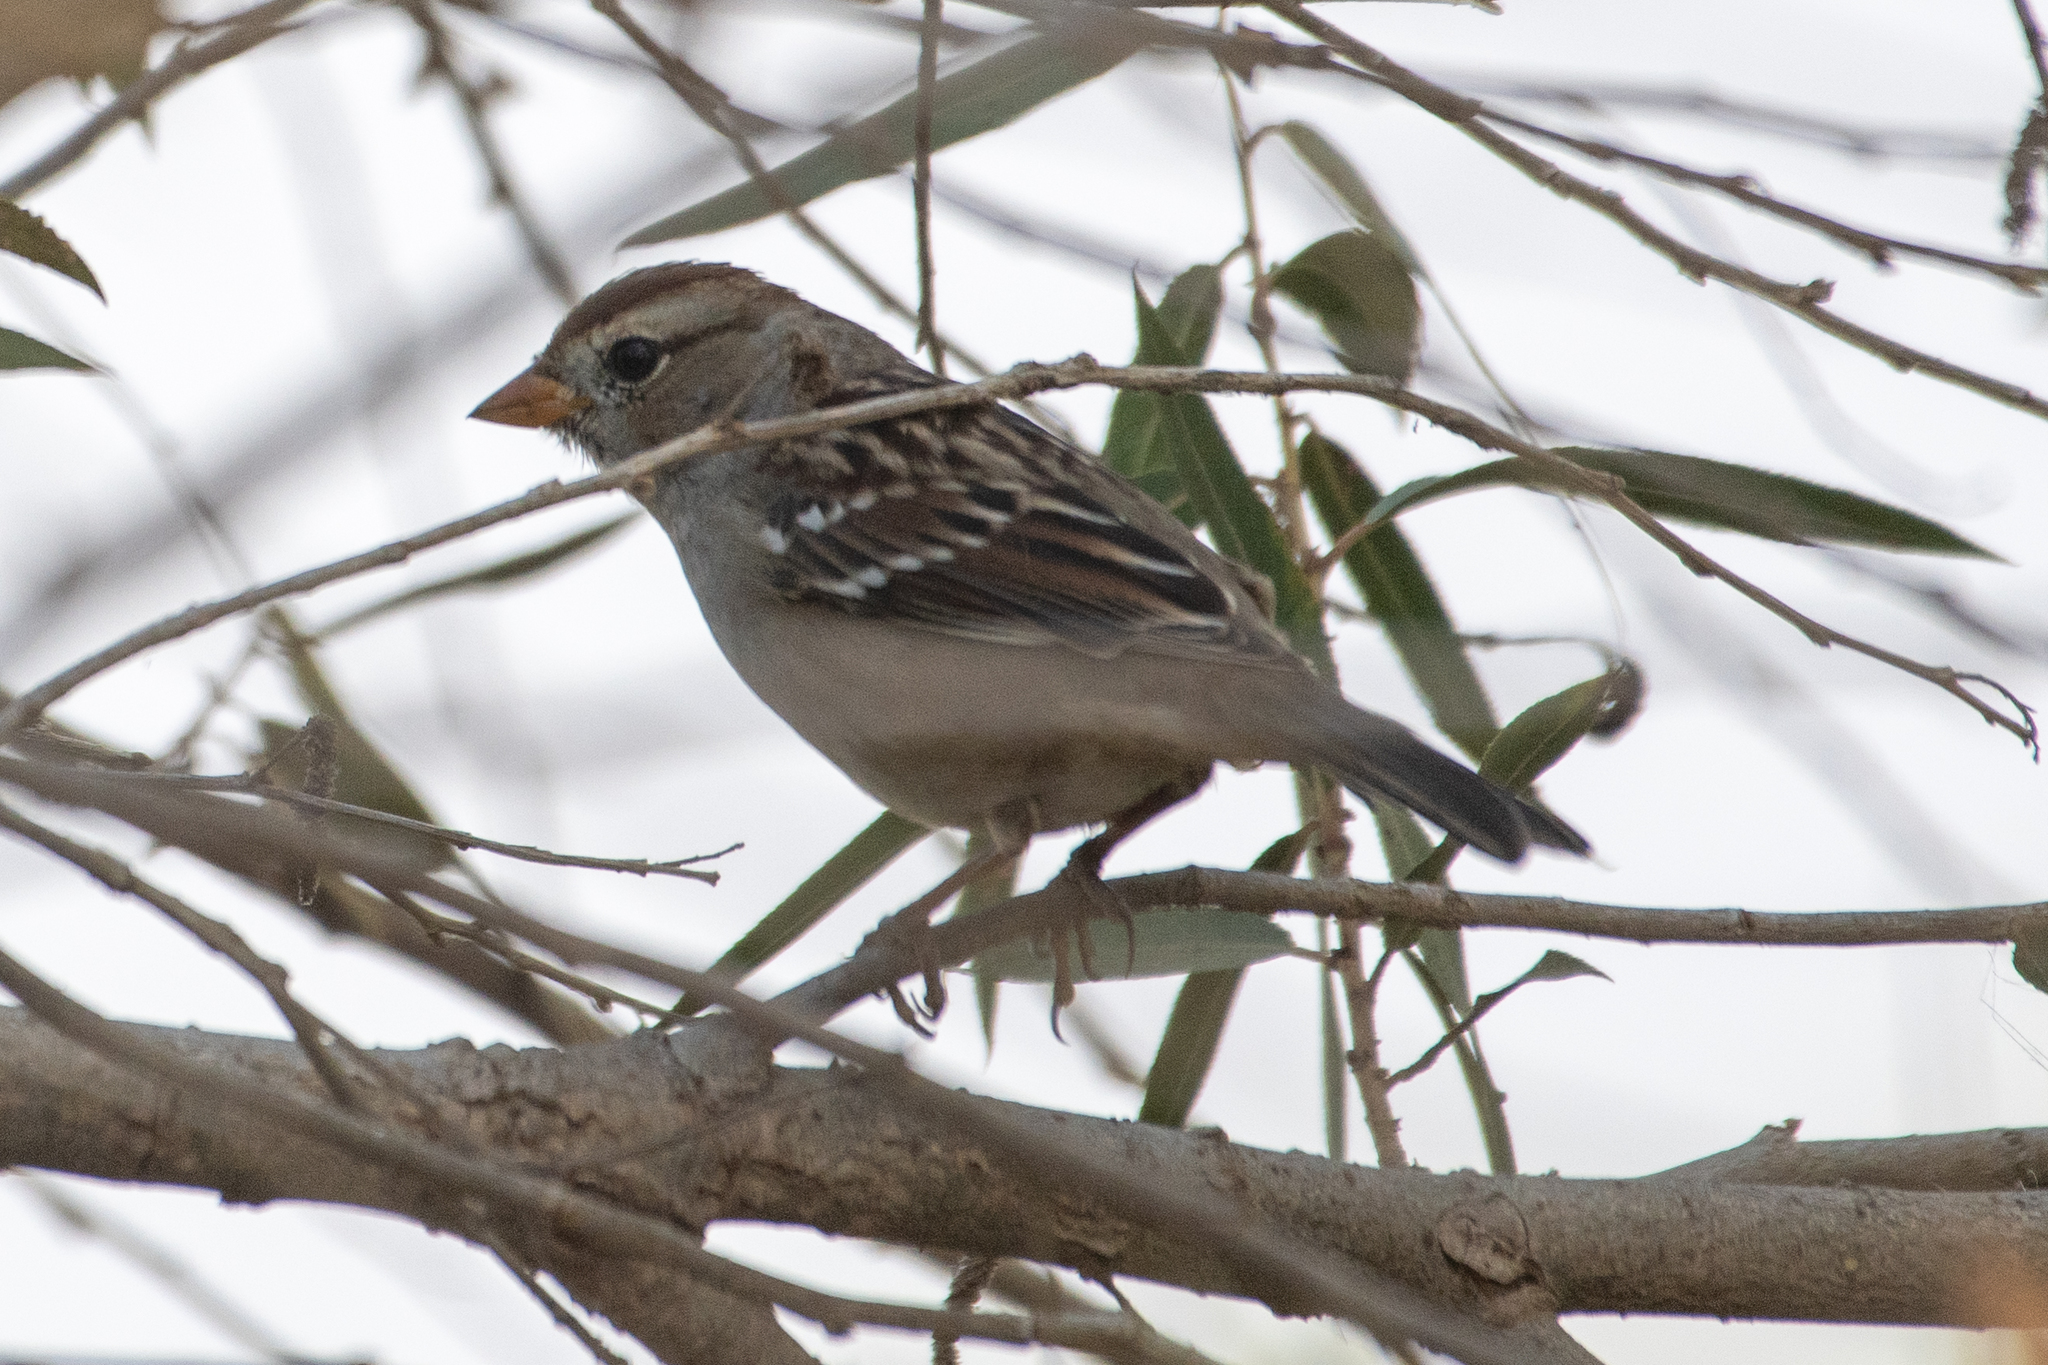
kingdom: Animalia
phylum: Chordata
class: Aves
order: Passeriformes
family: Passerellidae
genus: Zonotrichia
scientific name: Zonotrichia leucophrys
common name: White-crowned sparrow
